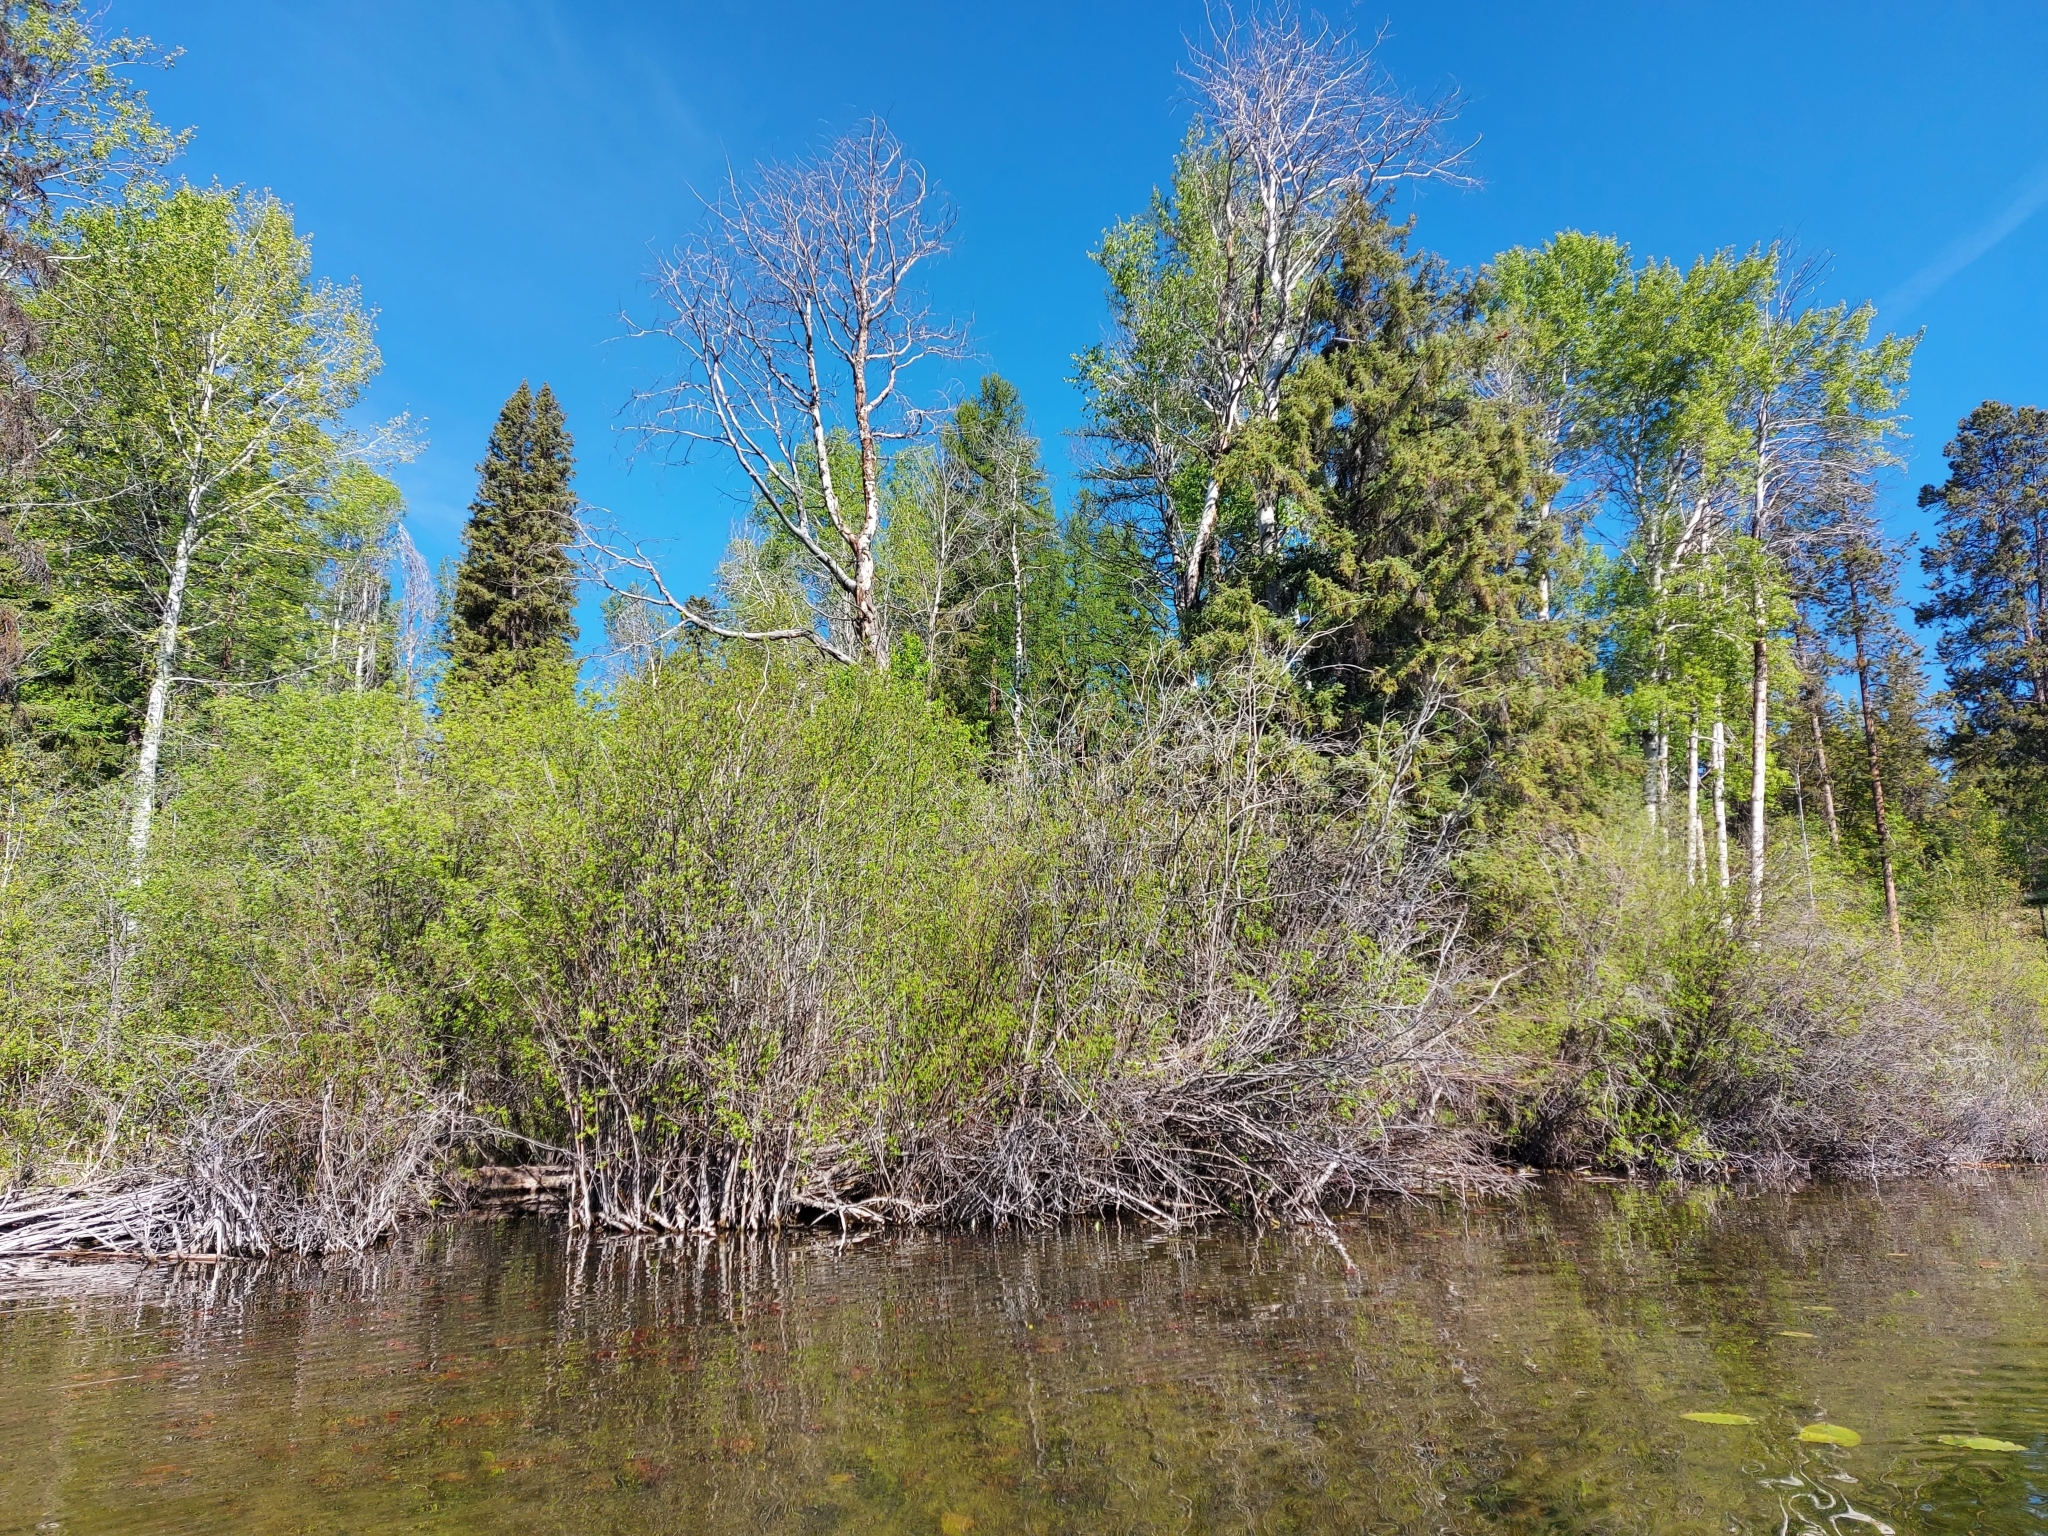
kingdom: Animalia
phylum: Chordata
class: Aves
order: Passeriformes
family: Parulidae
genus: Parkesia
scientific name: Parkesia noveboracensis
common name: Northern waterthrush
